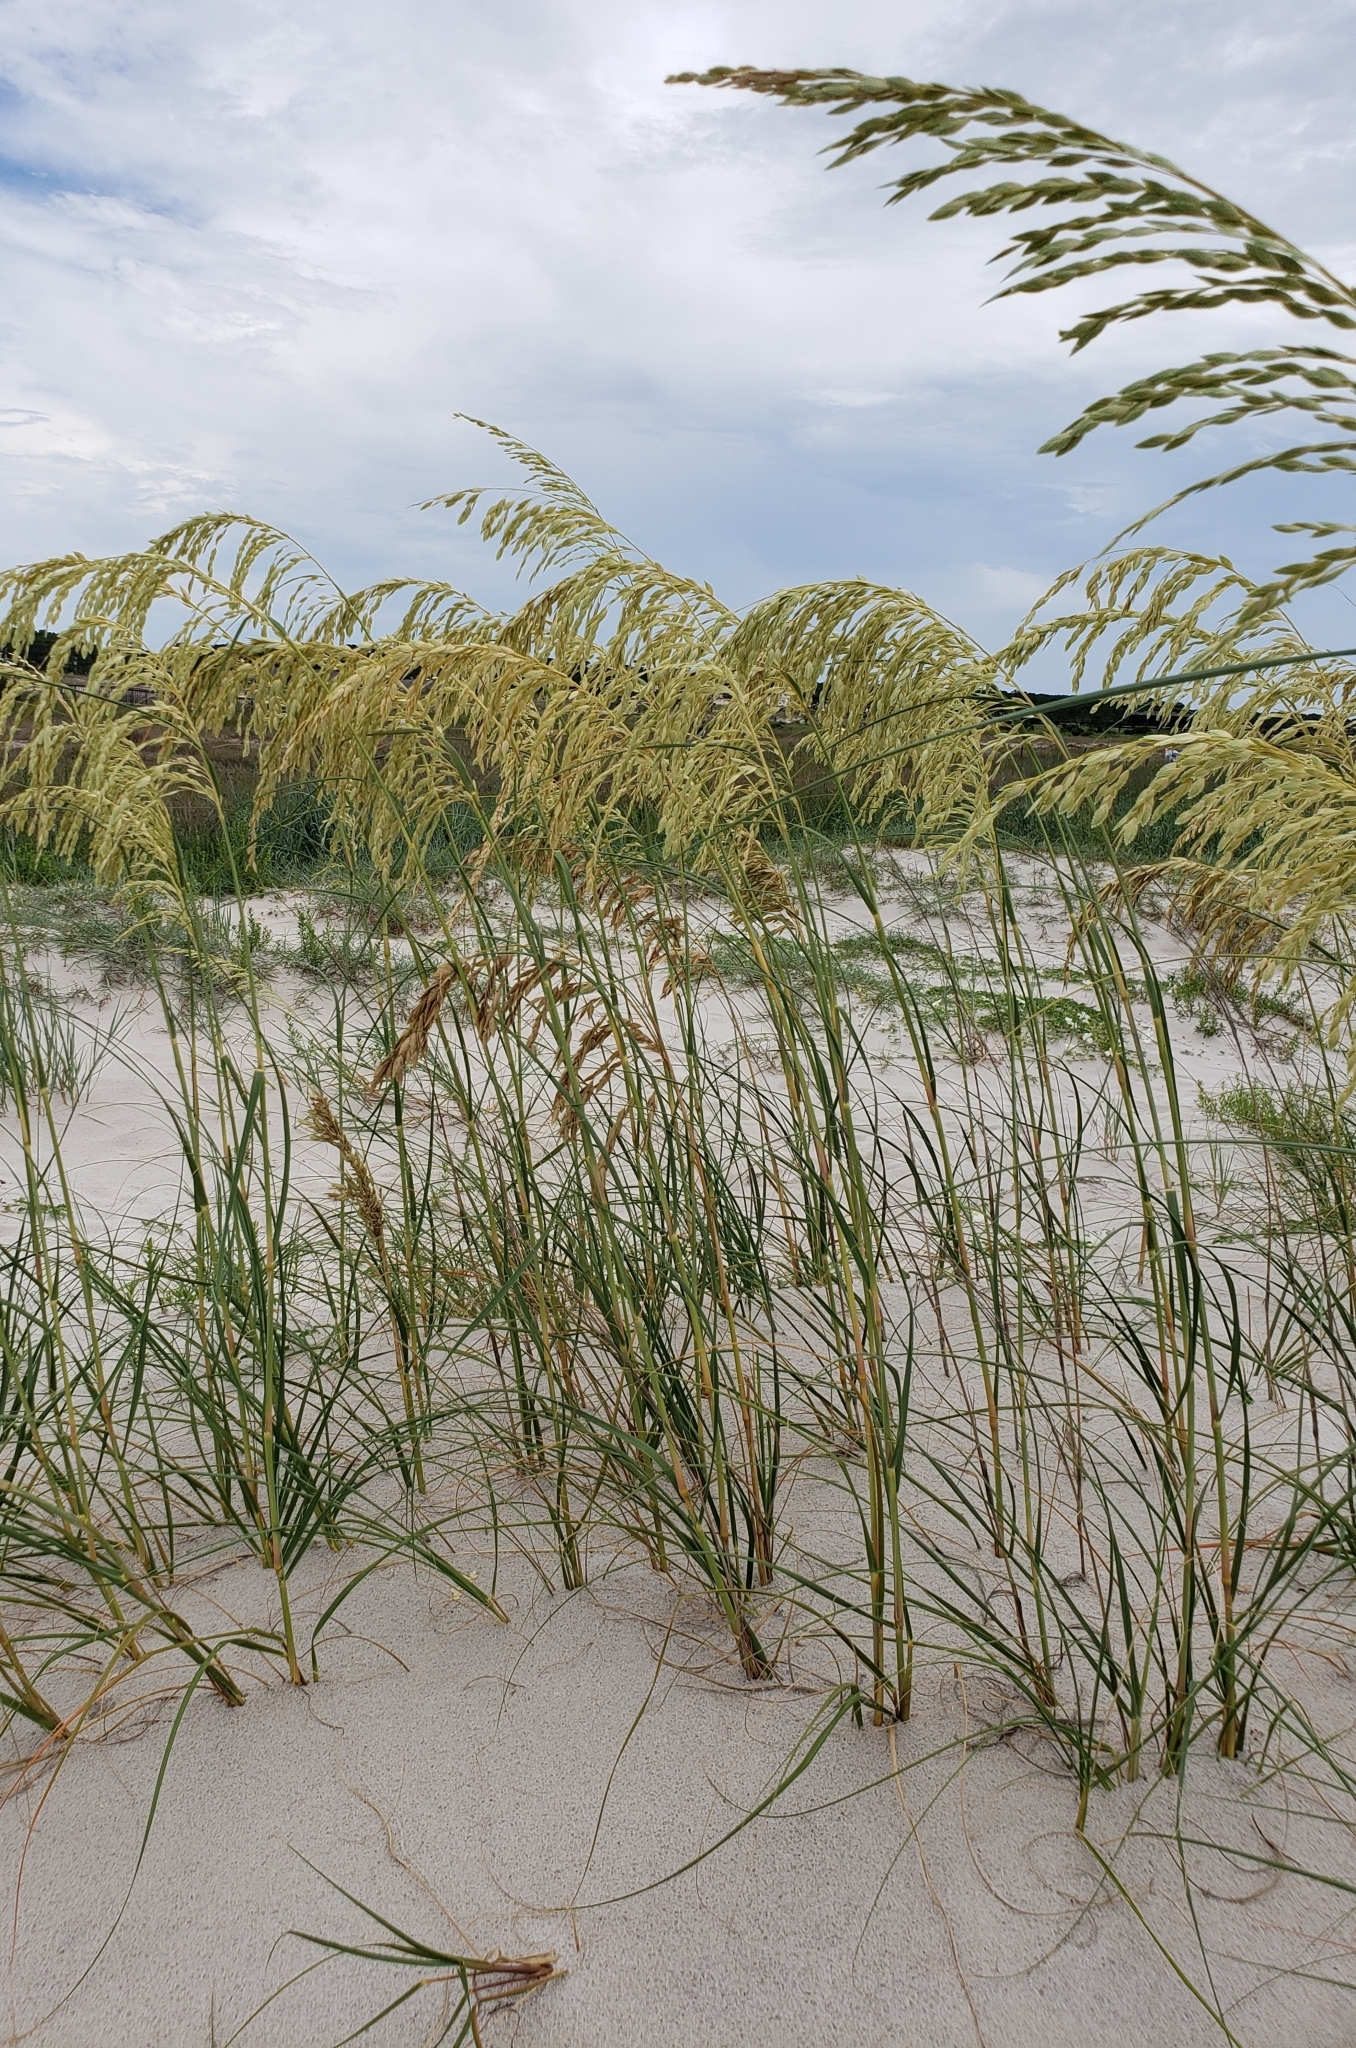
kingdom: Plantae
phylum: Tracheophyta
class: Liliopsida
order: Poales
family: Poaceae
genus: Uniola
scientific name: Uniola paniculata
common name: Seaside-oats
